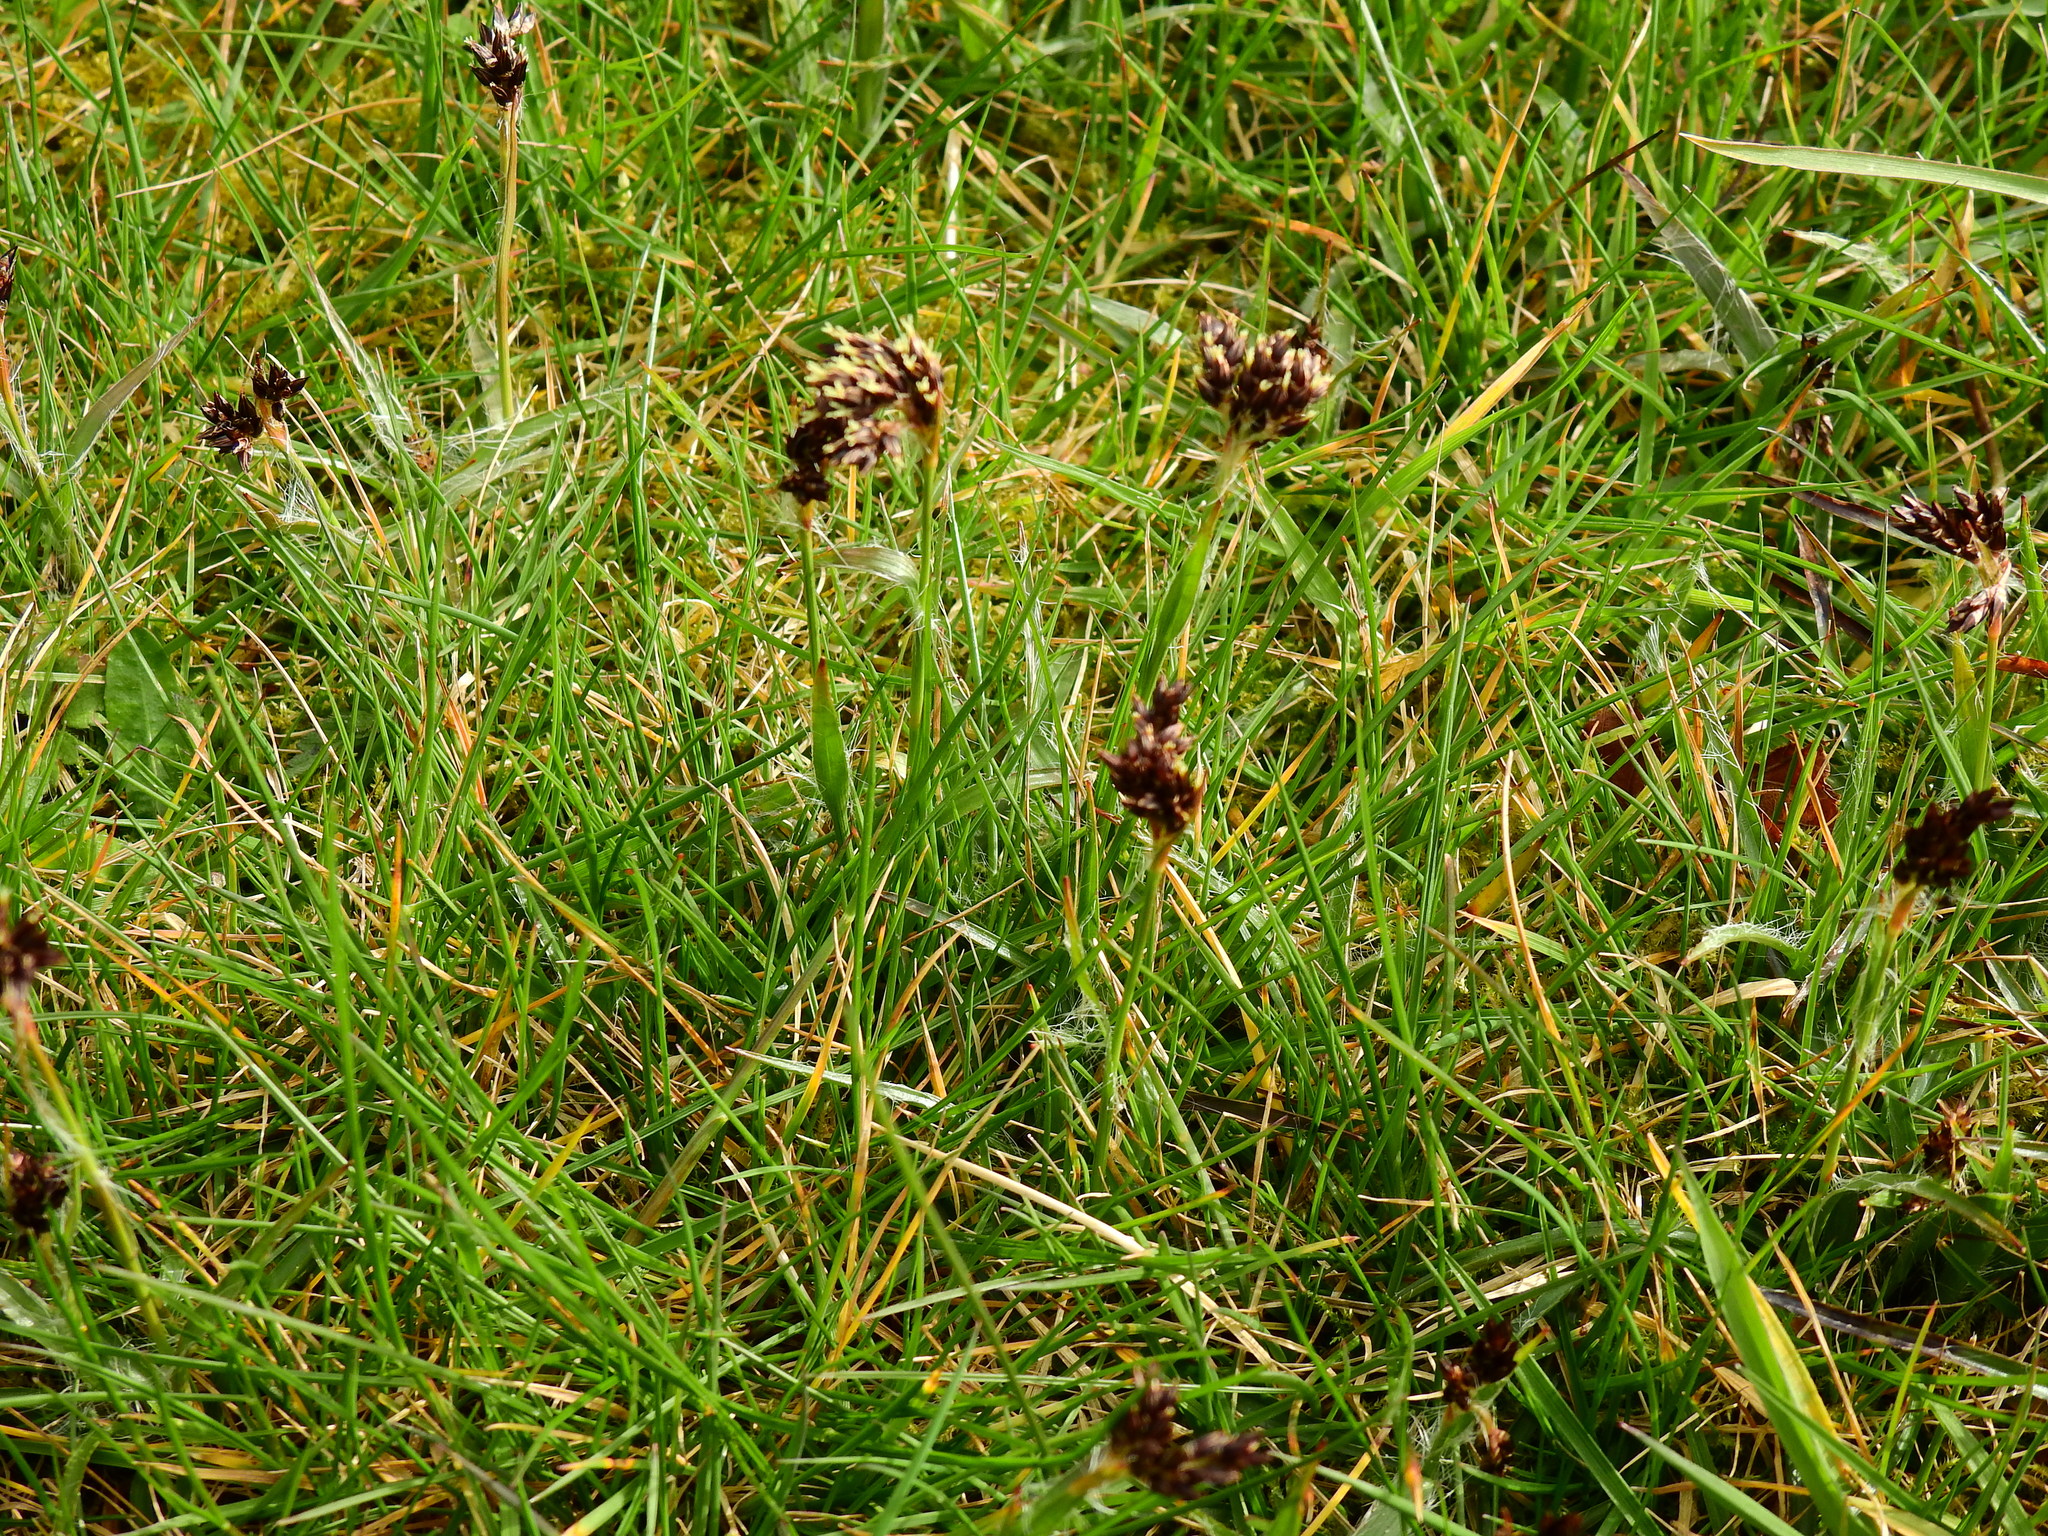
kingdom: Plantae
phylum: Tracheophyta
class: Liliopsida
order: Poales
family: Juncaceae
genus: Luzula
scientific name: Luzula campestris
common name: Field wood-rush
